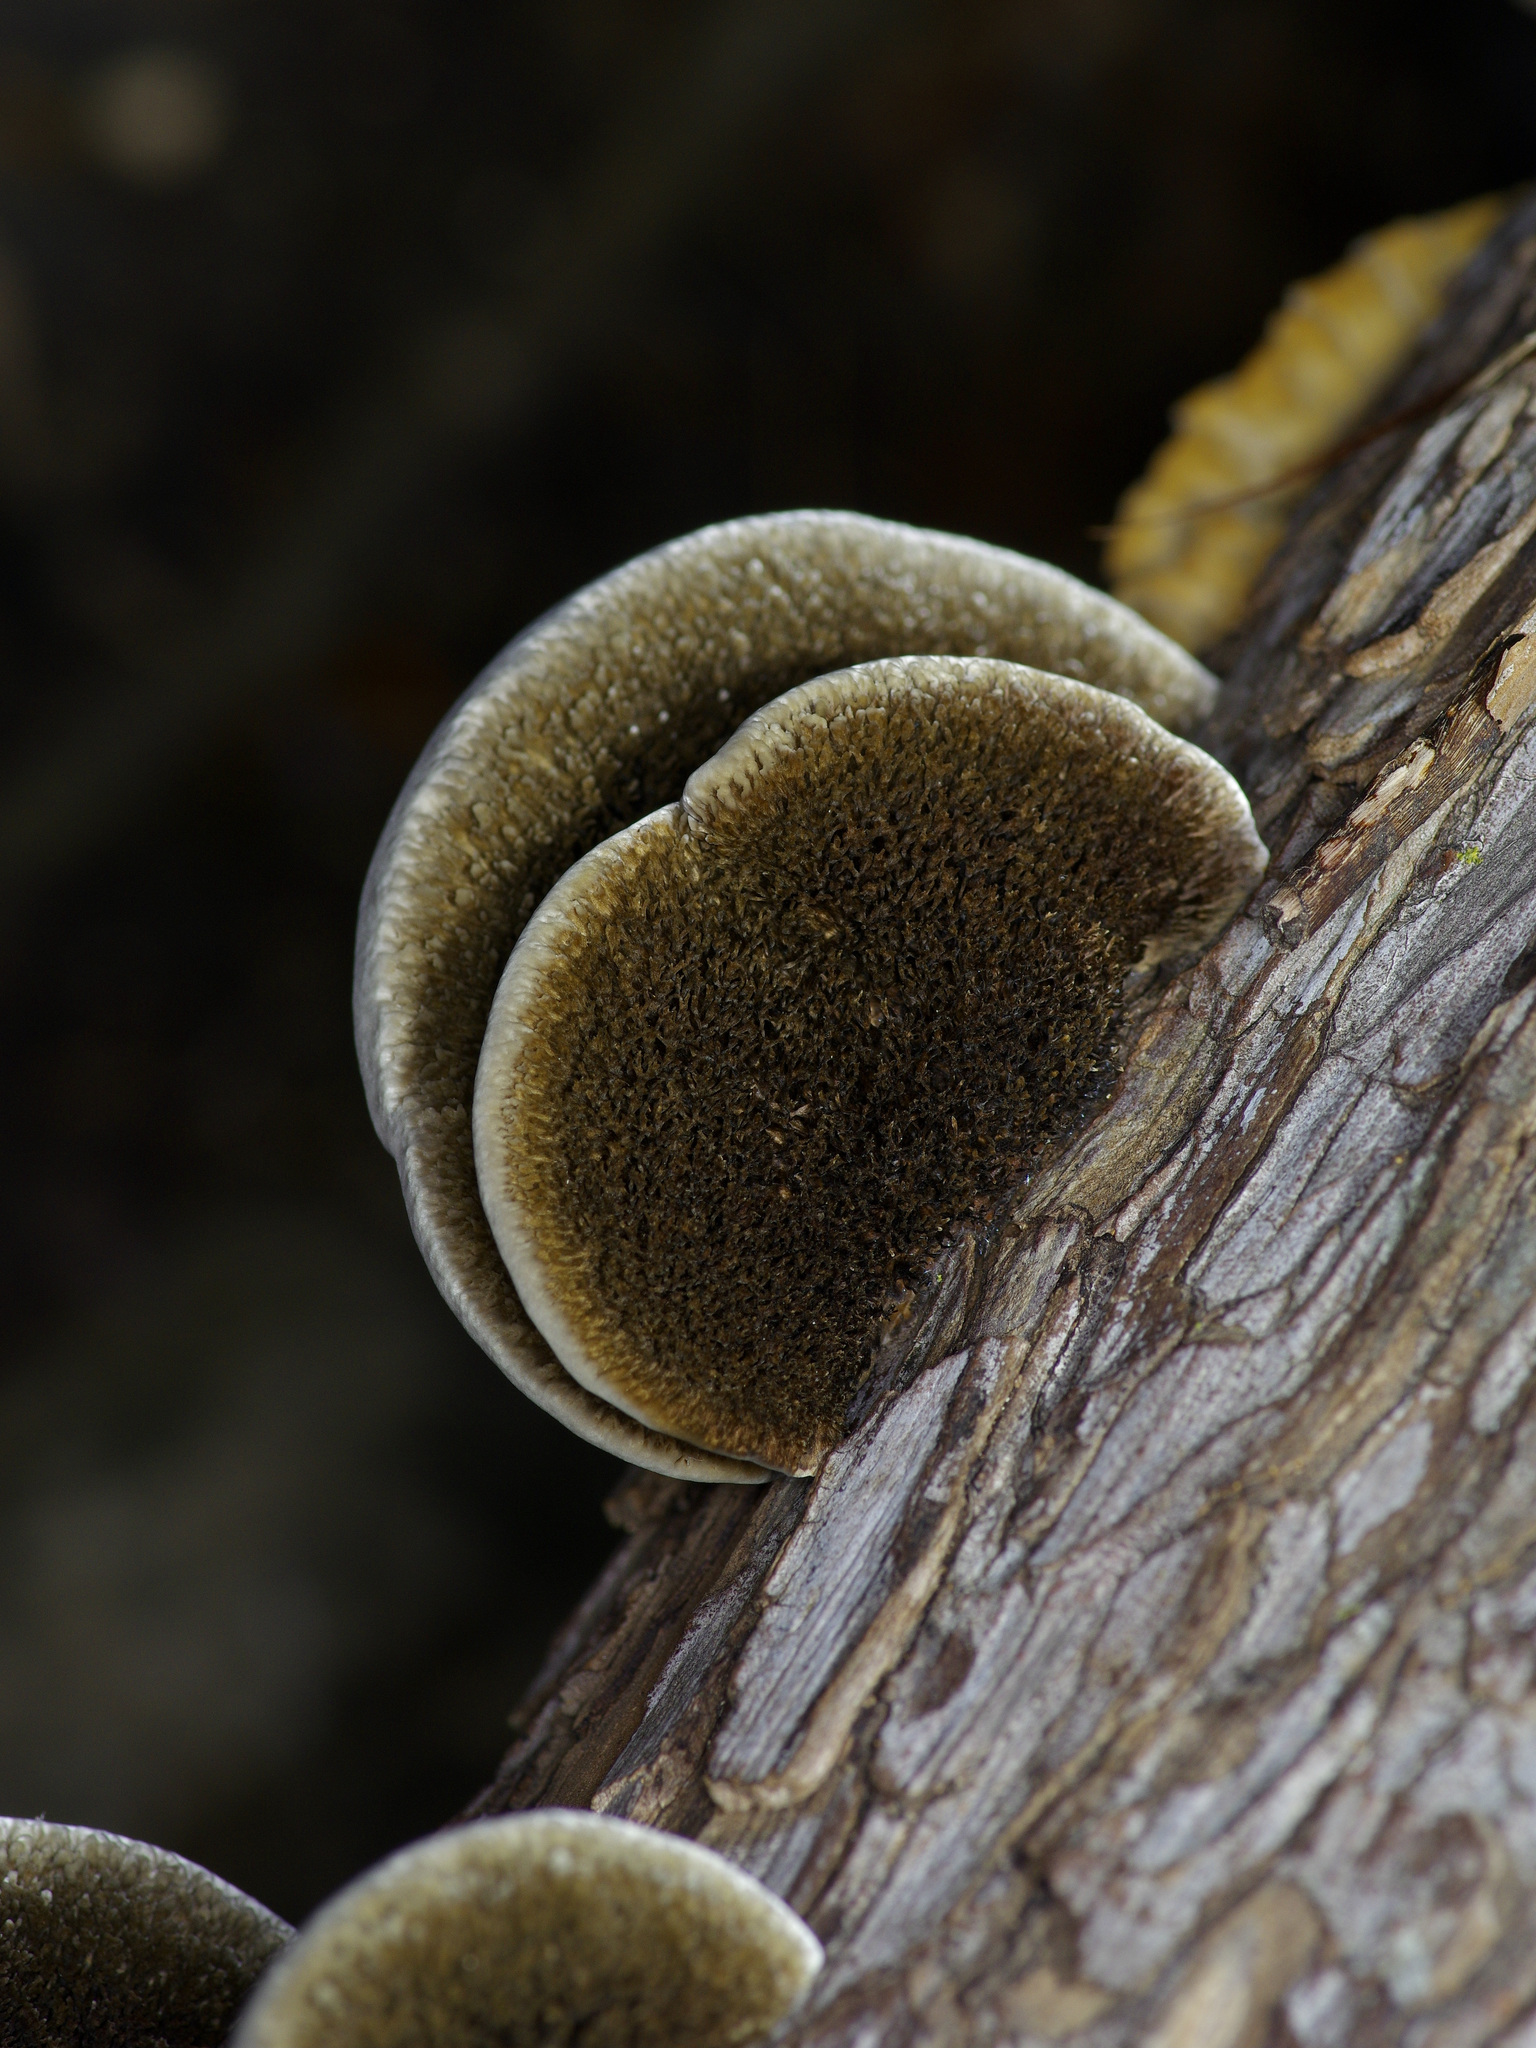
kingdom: Fungi
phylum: Basidiomycota
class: Agaricomycetes
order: Polyporales
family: Cerrenaceae
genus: Cerrena
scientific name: Cerrena hydnoides
